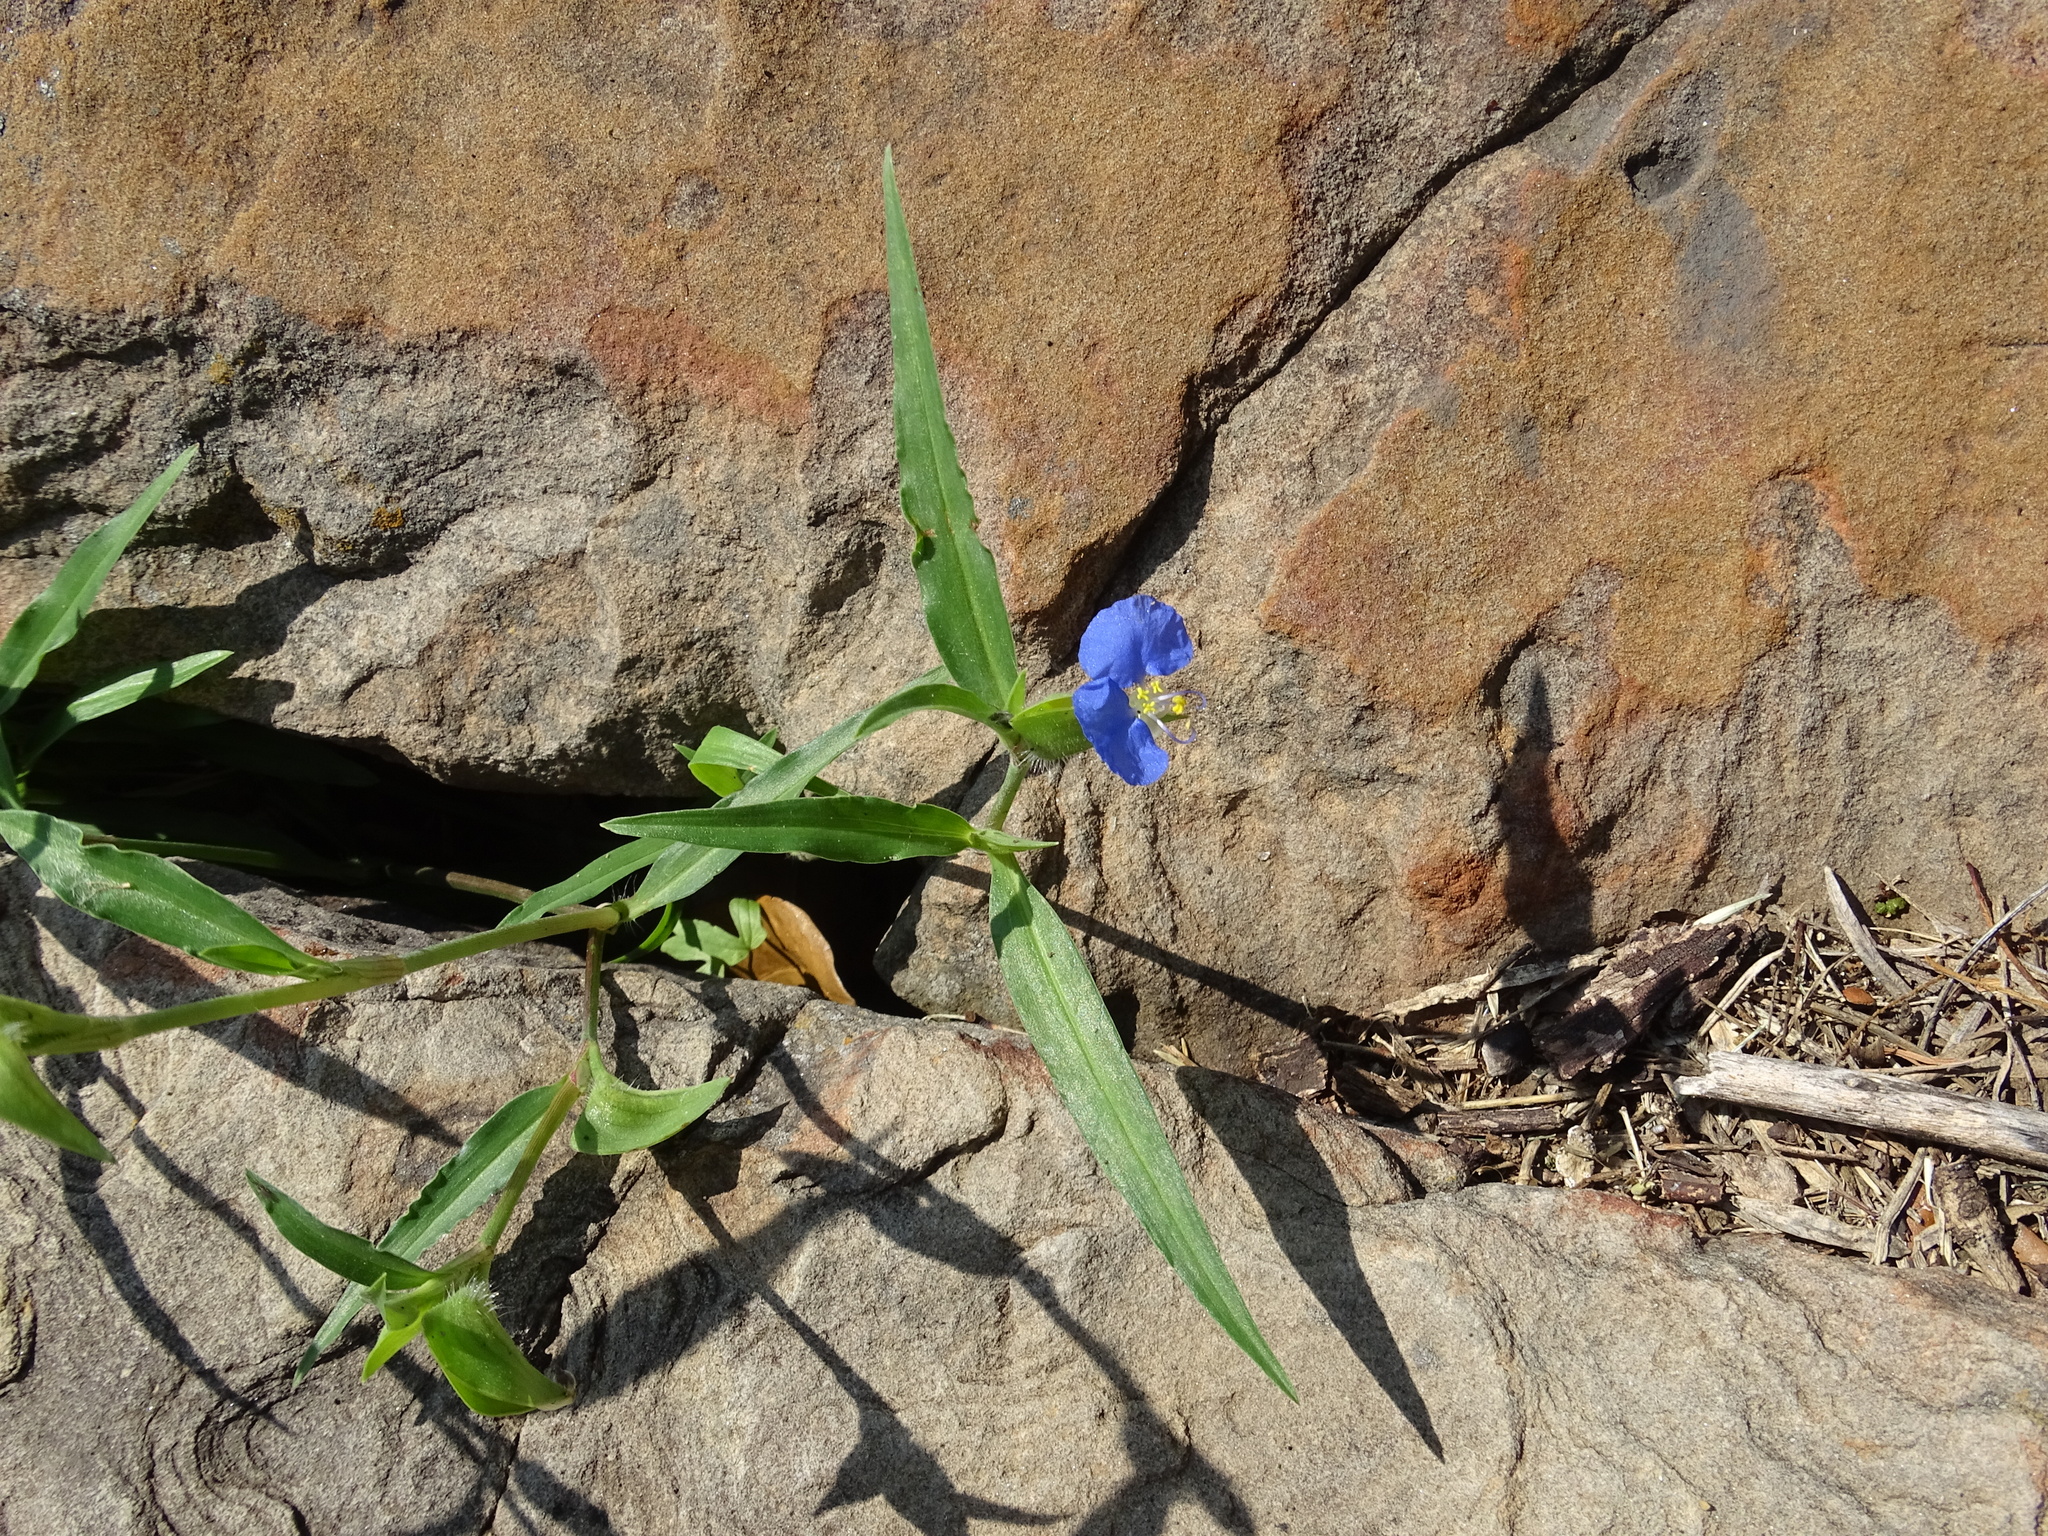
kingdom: Plantae
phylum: Tracheophyta
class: Liliopsida
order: Commelinales
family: Commelinaceae
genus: Commelina
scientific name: Commelina erecta
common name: Blousel blommetjie
